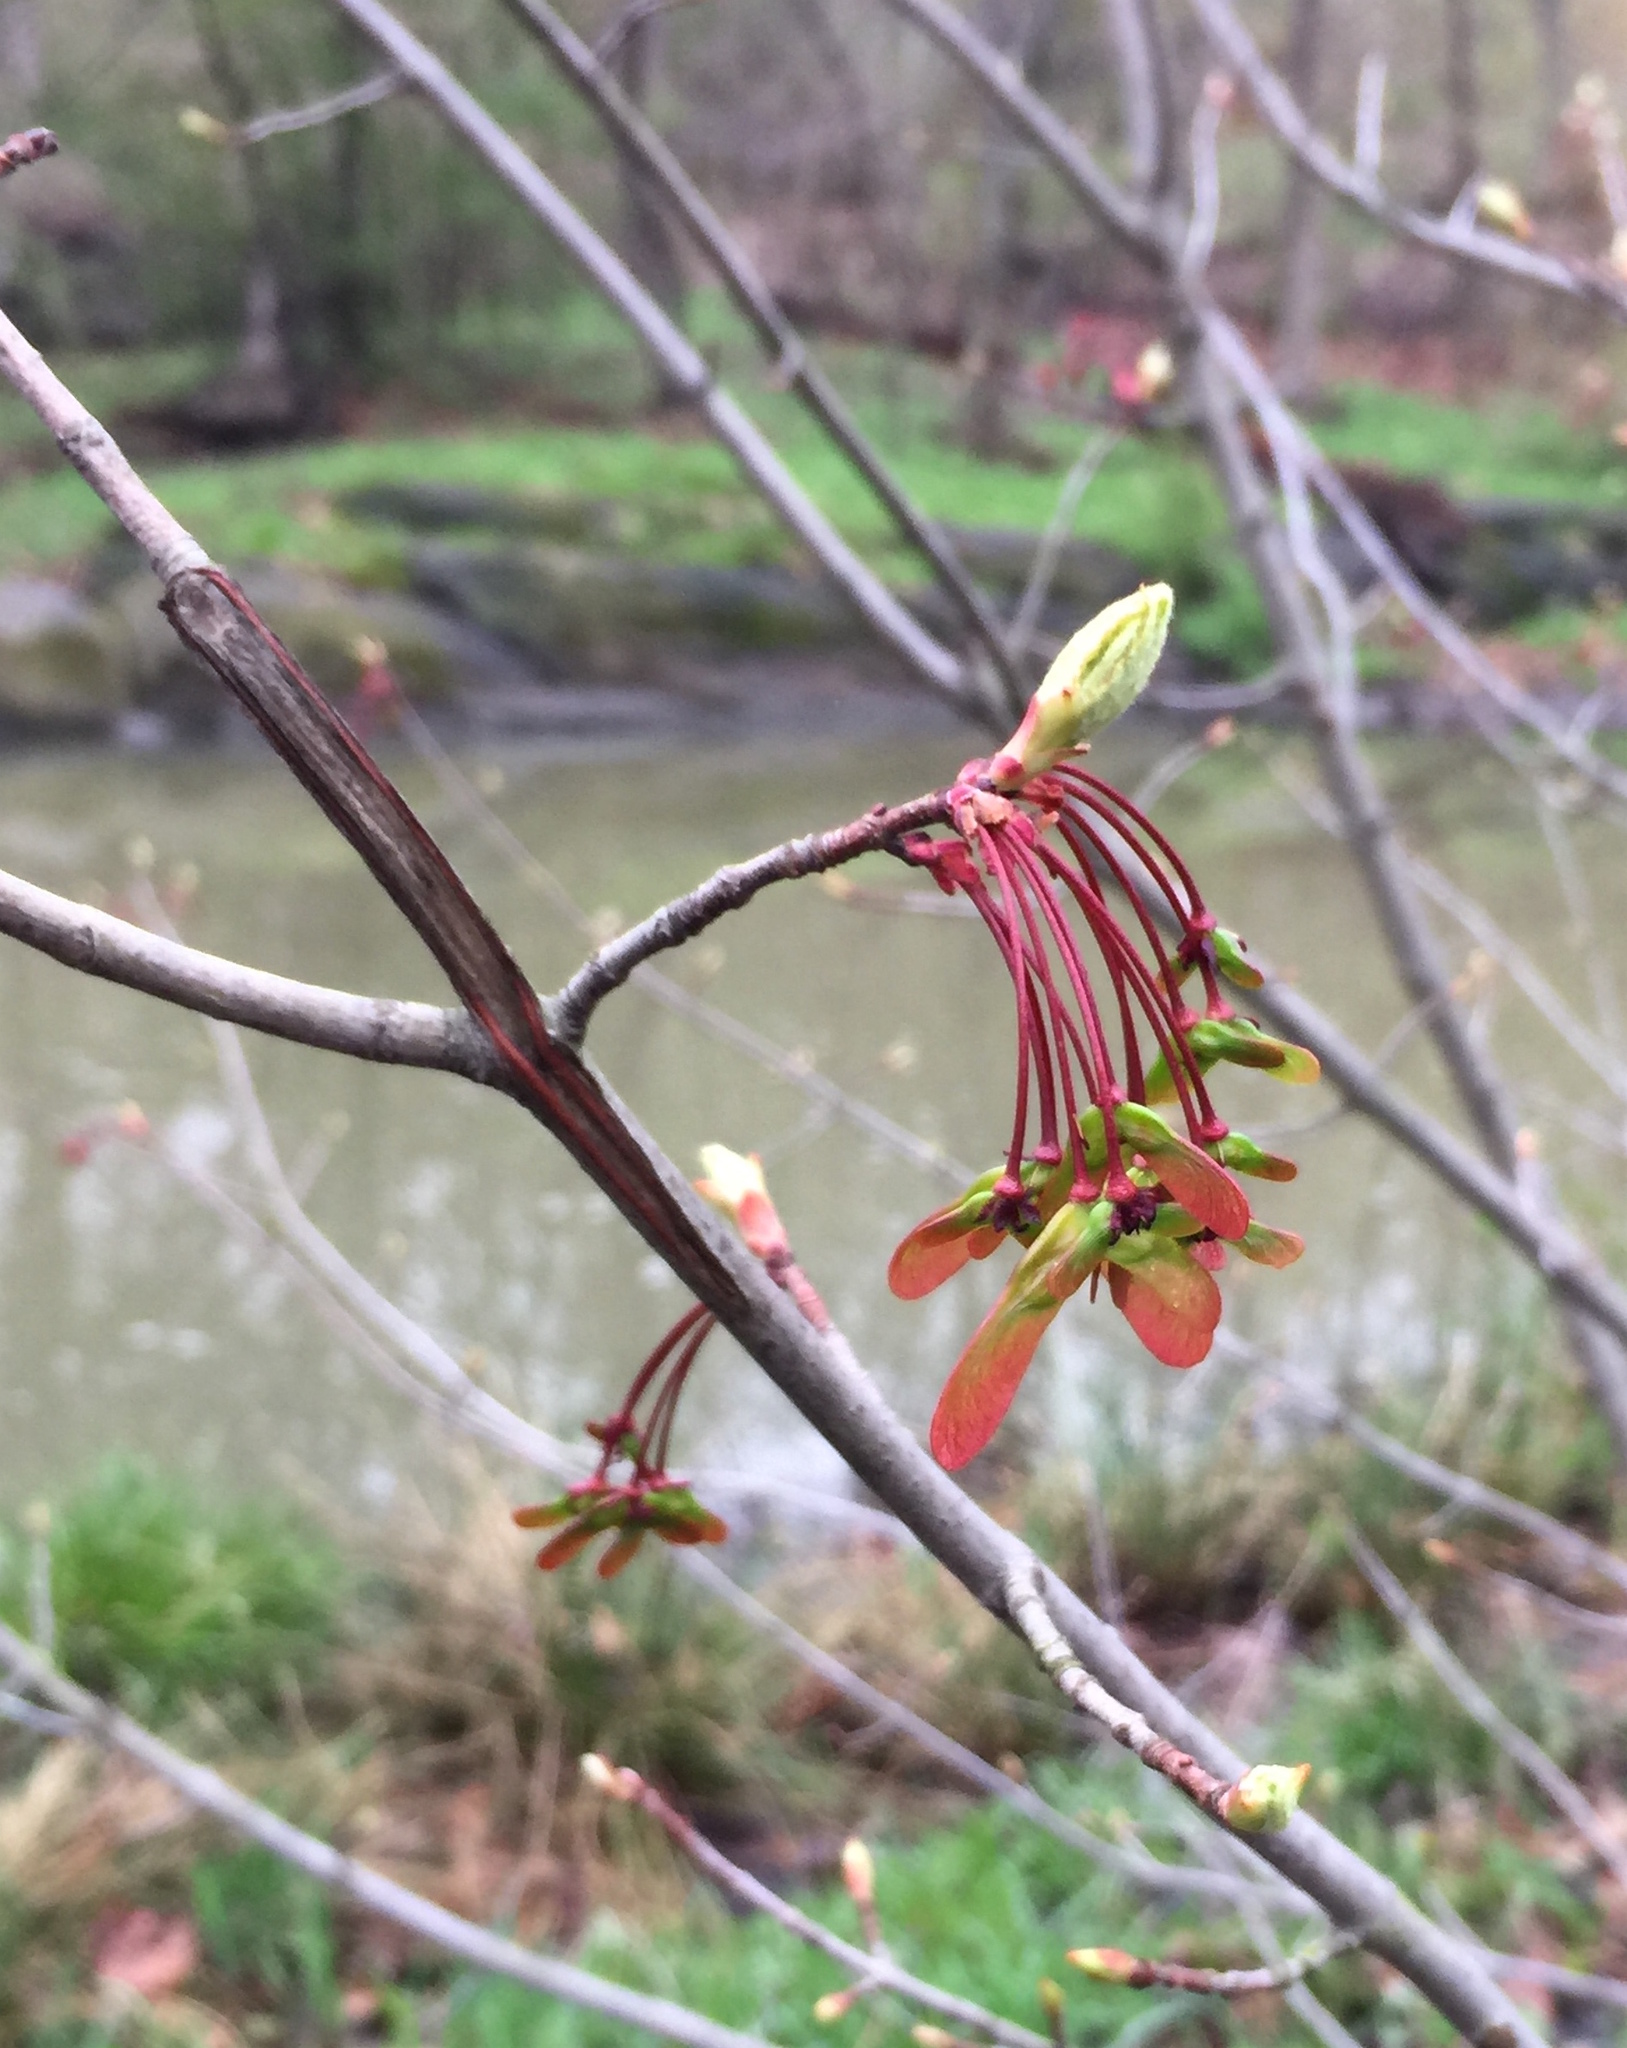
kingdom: Plantae
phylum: Tracheophyta
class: Magnoliopsida
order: Sapindales
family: Sapindaceae
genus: Acer
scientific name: Acer rubrum
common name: Red maple
